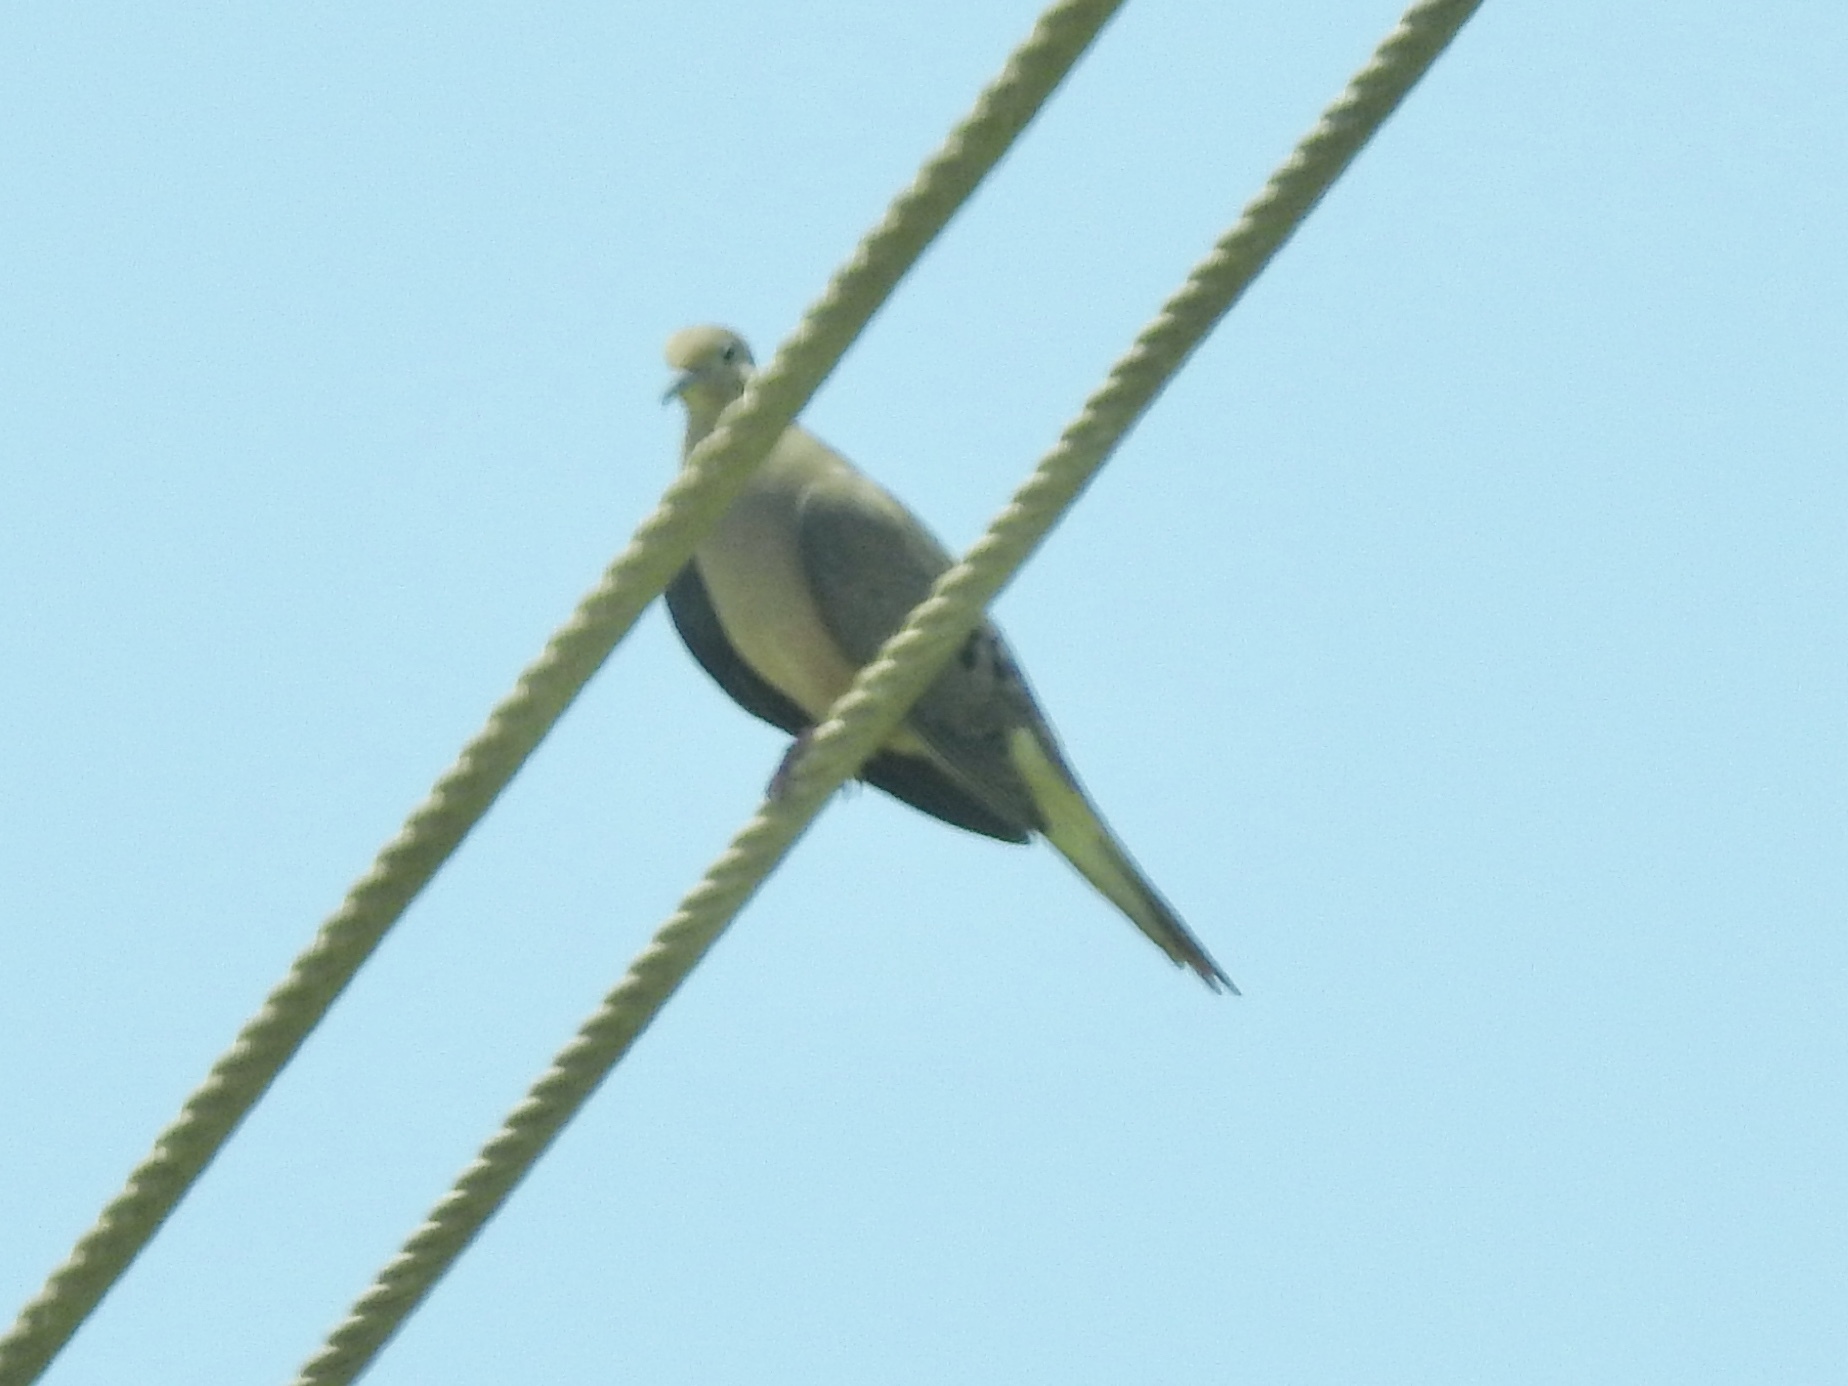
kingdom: Animalia
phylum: Chordata
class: Aves
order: Columbiformes
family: Columbidae
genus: Zenaida
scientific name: Zenaida macroura
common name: Mourning dove
